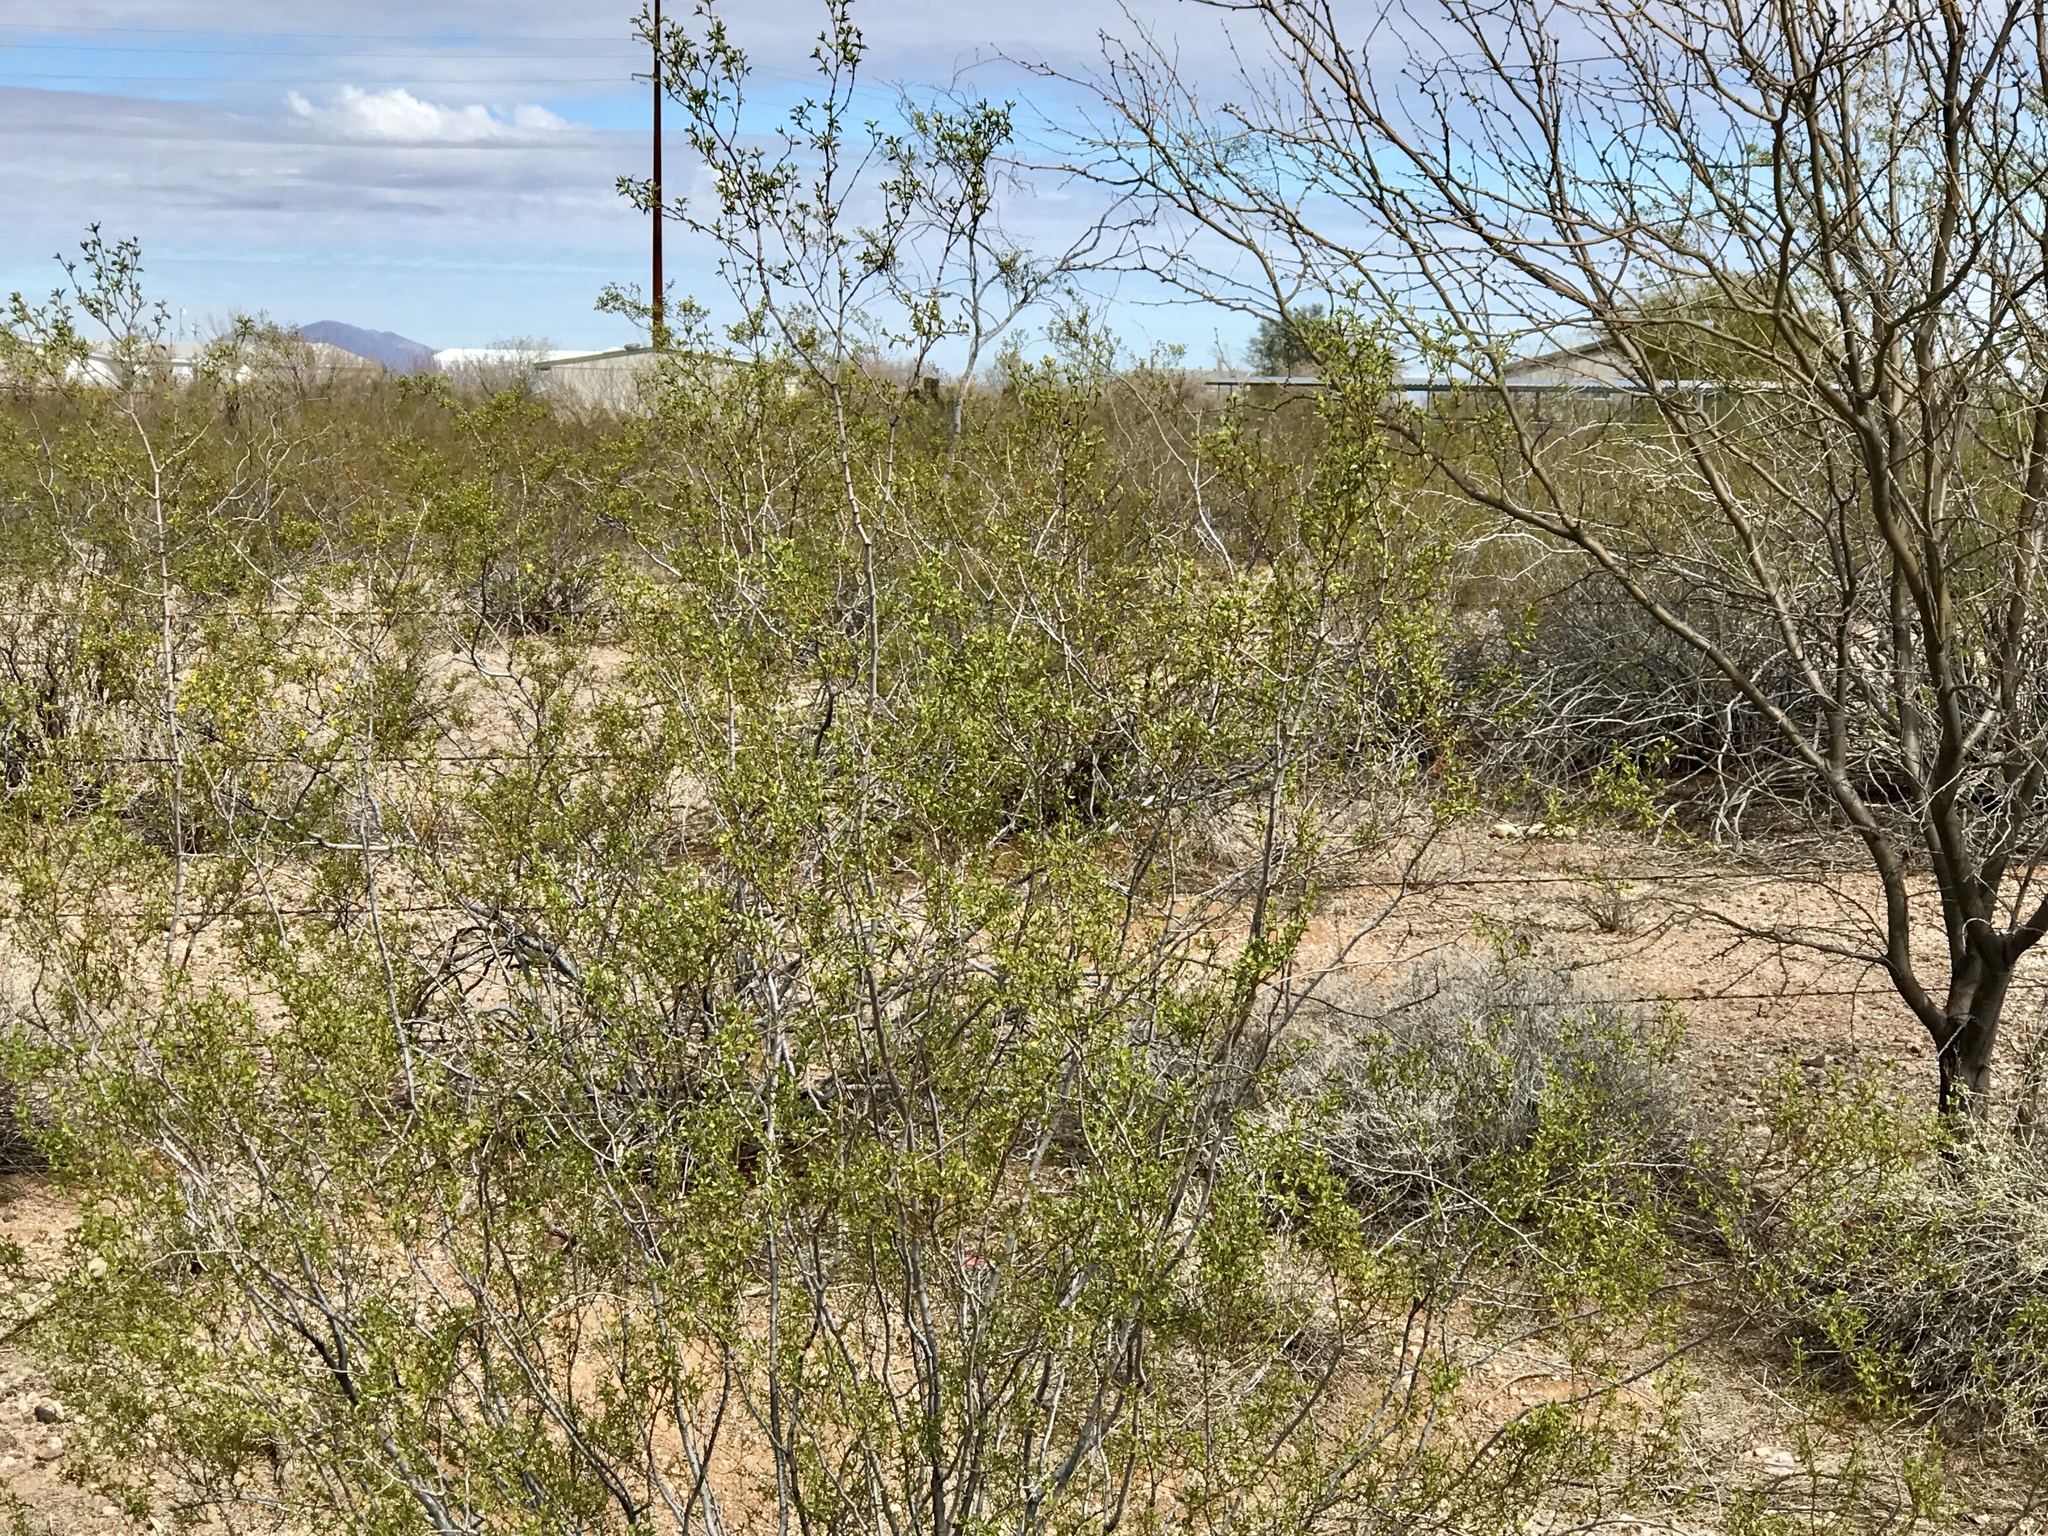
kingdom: Plantae
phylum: Tracheophyta
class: Magnoliopsida
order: Zygophyllales
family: Zygophyllaceae
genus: Larrea
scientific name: Larrea tridentata
